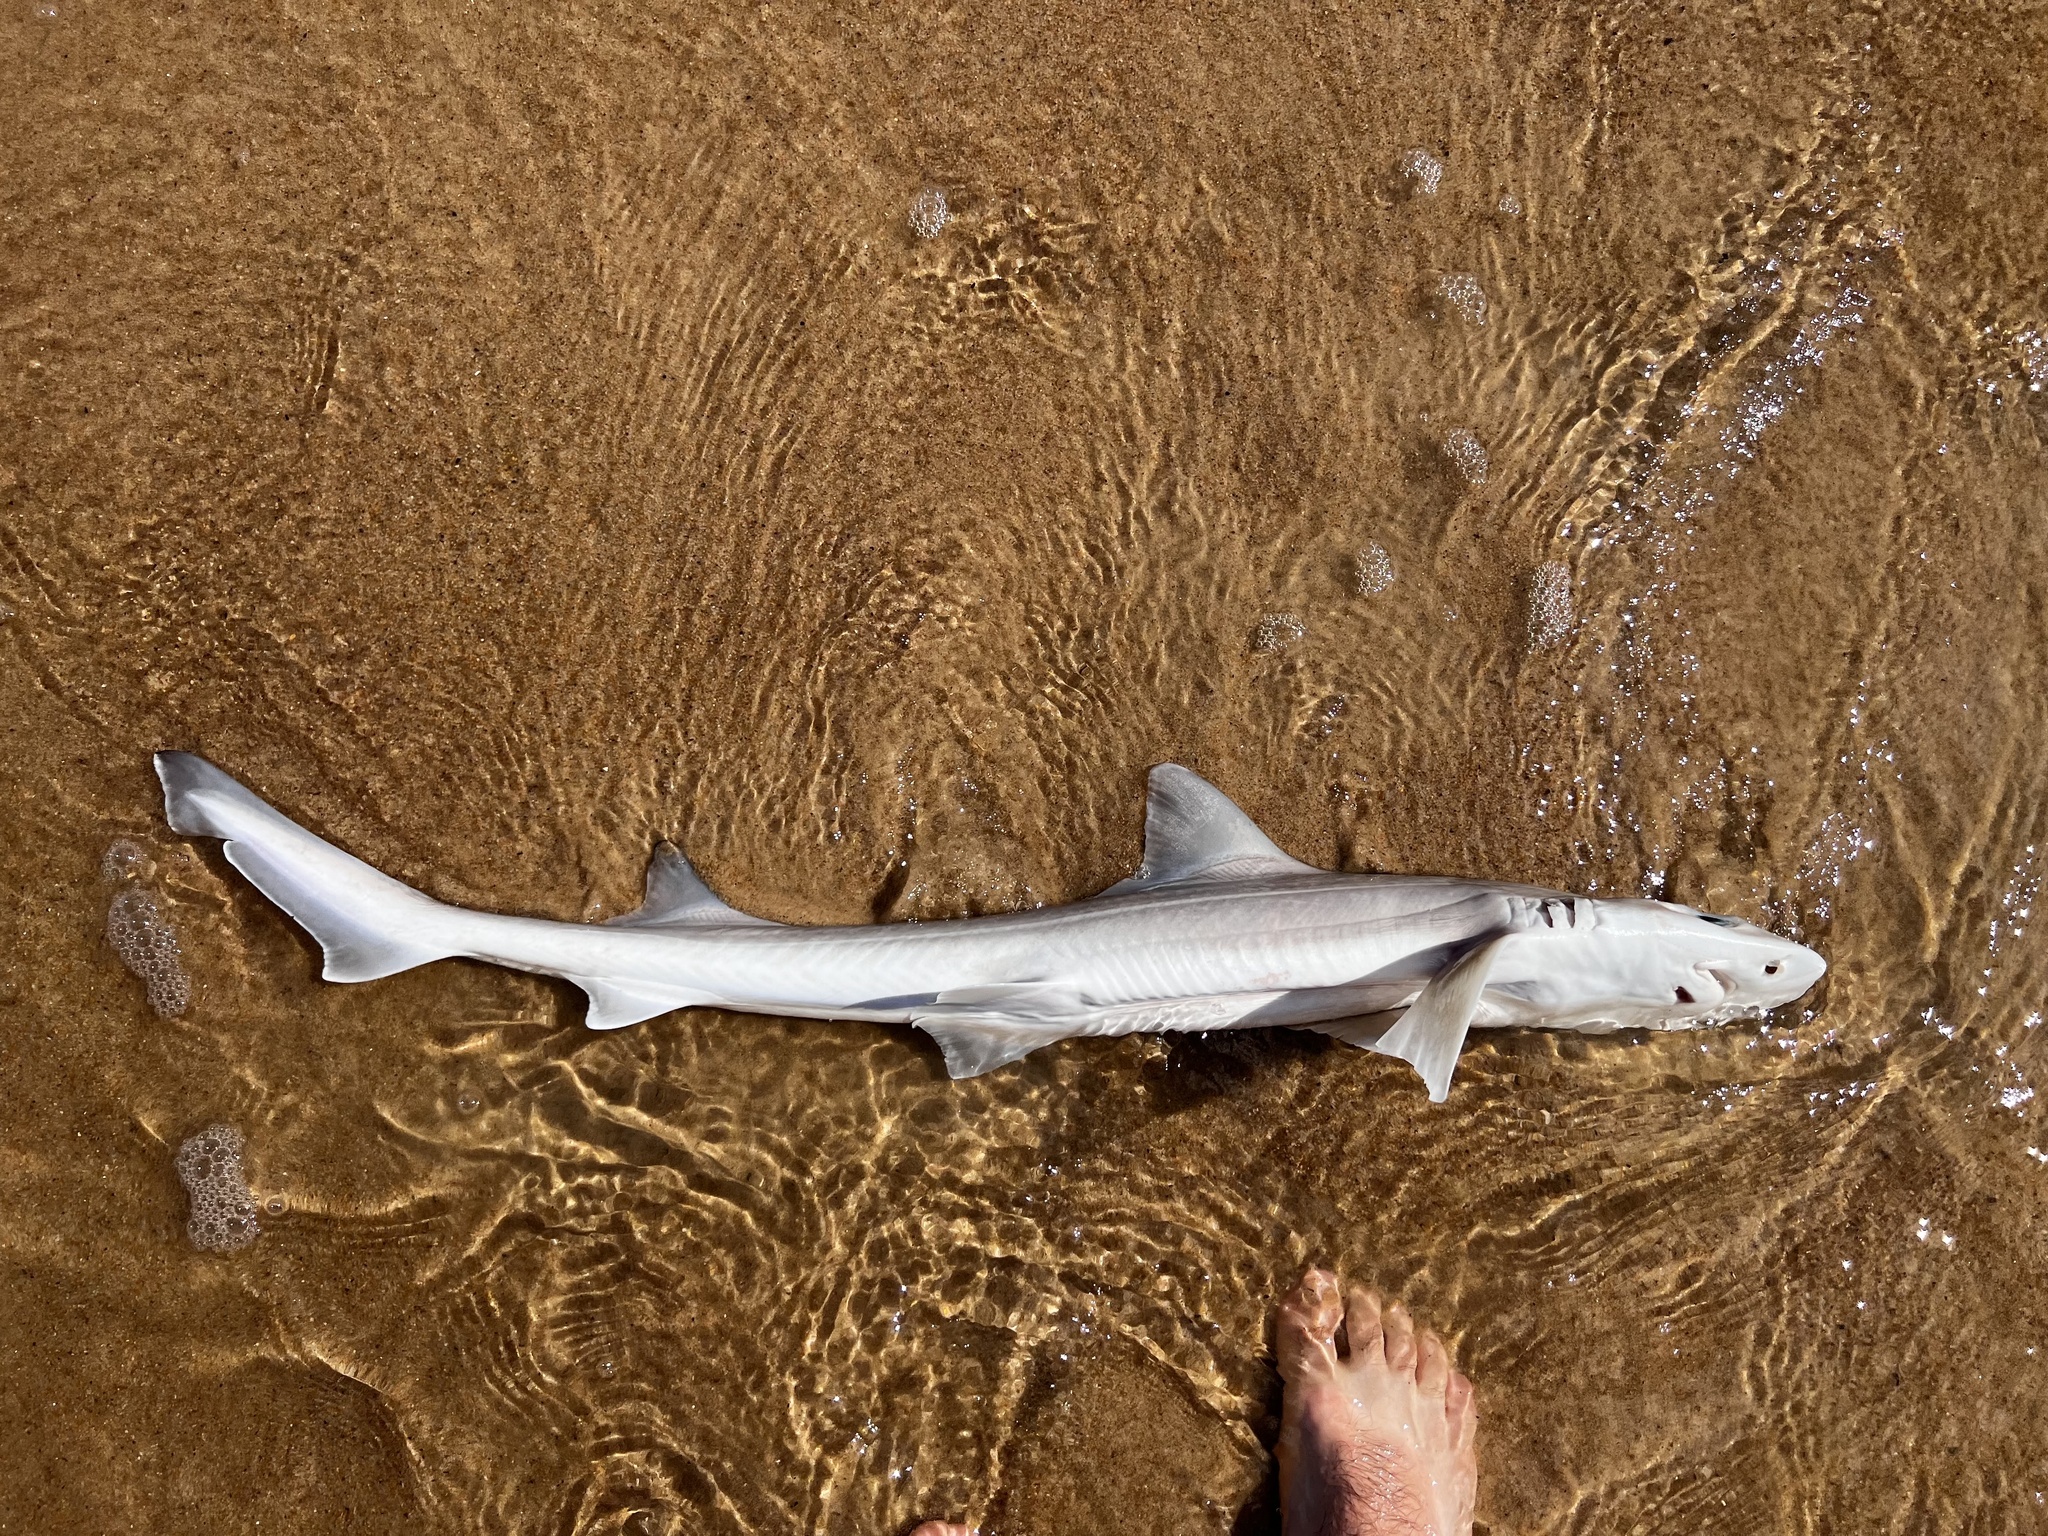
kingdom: Animalia
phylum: Chordata
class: Elasmobranchii
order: Carcharhiniformes
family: Triakidae
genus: Mustelus
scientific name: Mustelus canis
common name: Smooth dogfish
